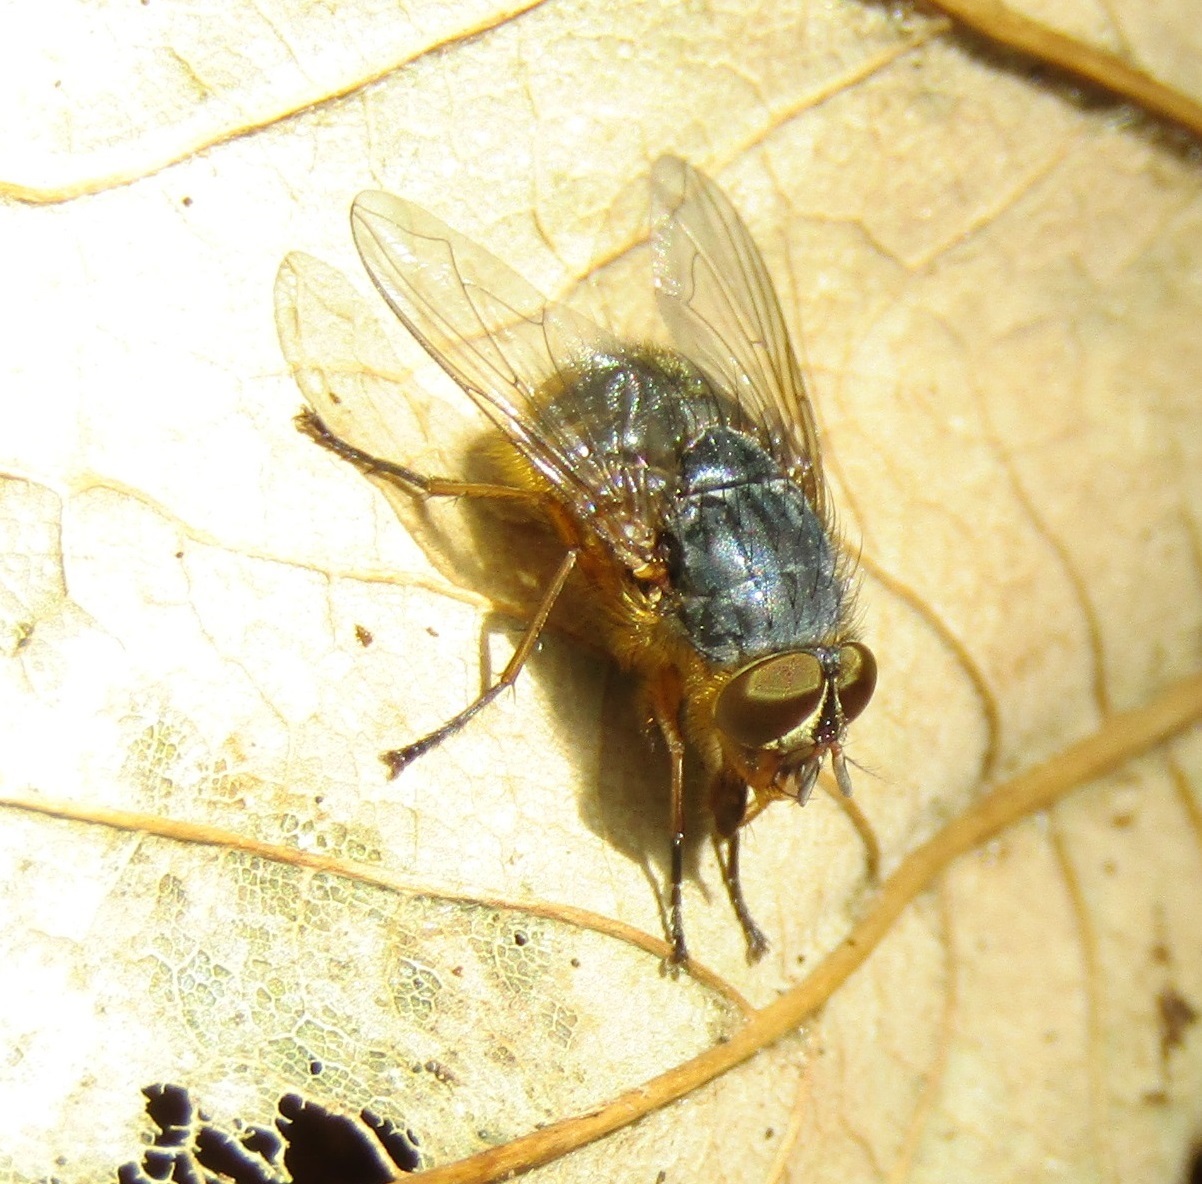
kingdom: Animalia
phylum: Arthropoda
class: Insecta
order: Diptera
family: Calliphoridae
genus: Calliphora
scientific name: Calliphora hilli
